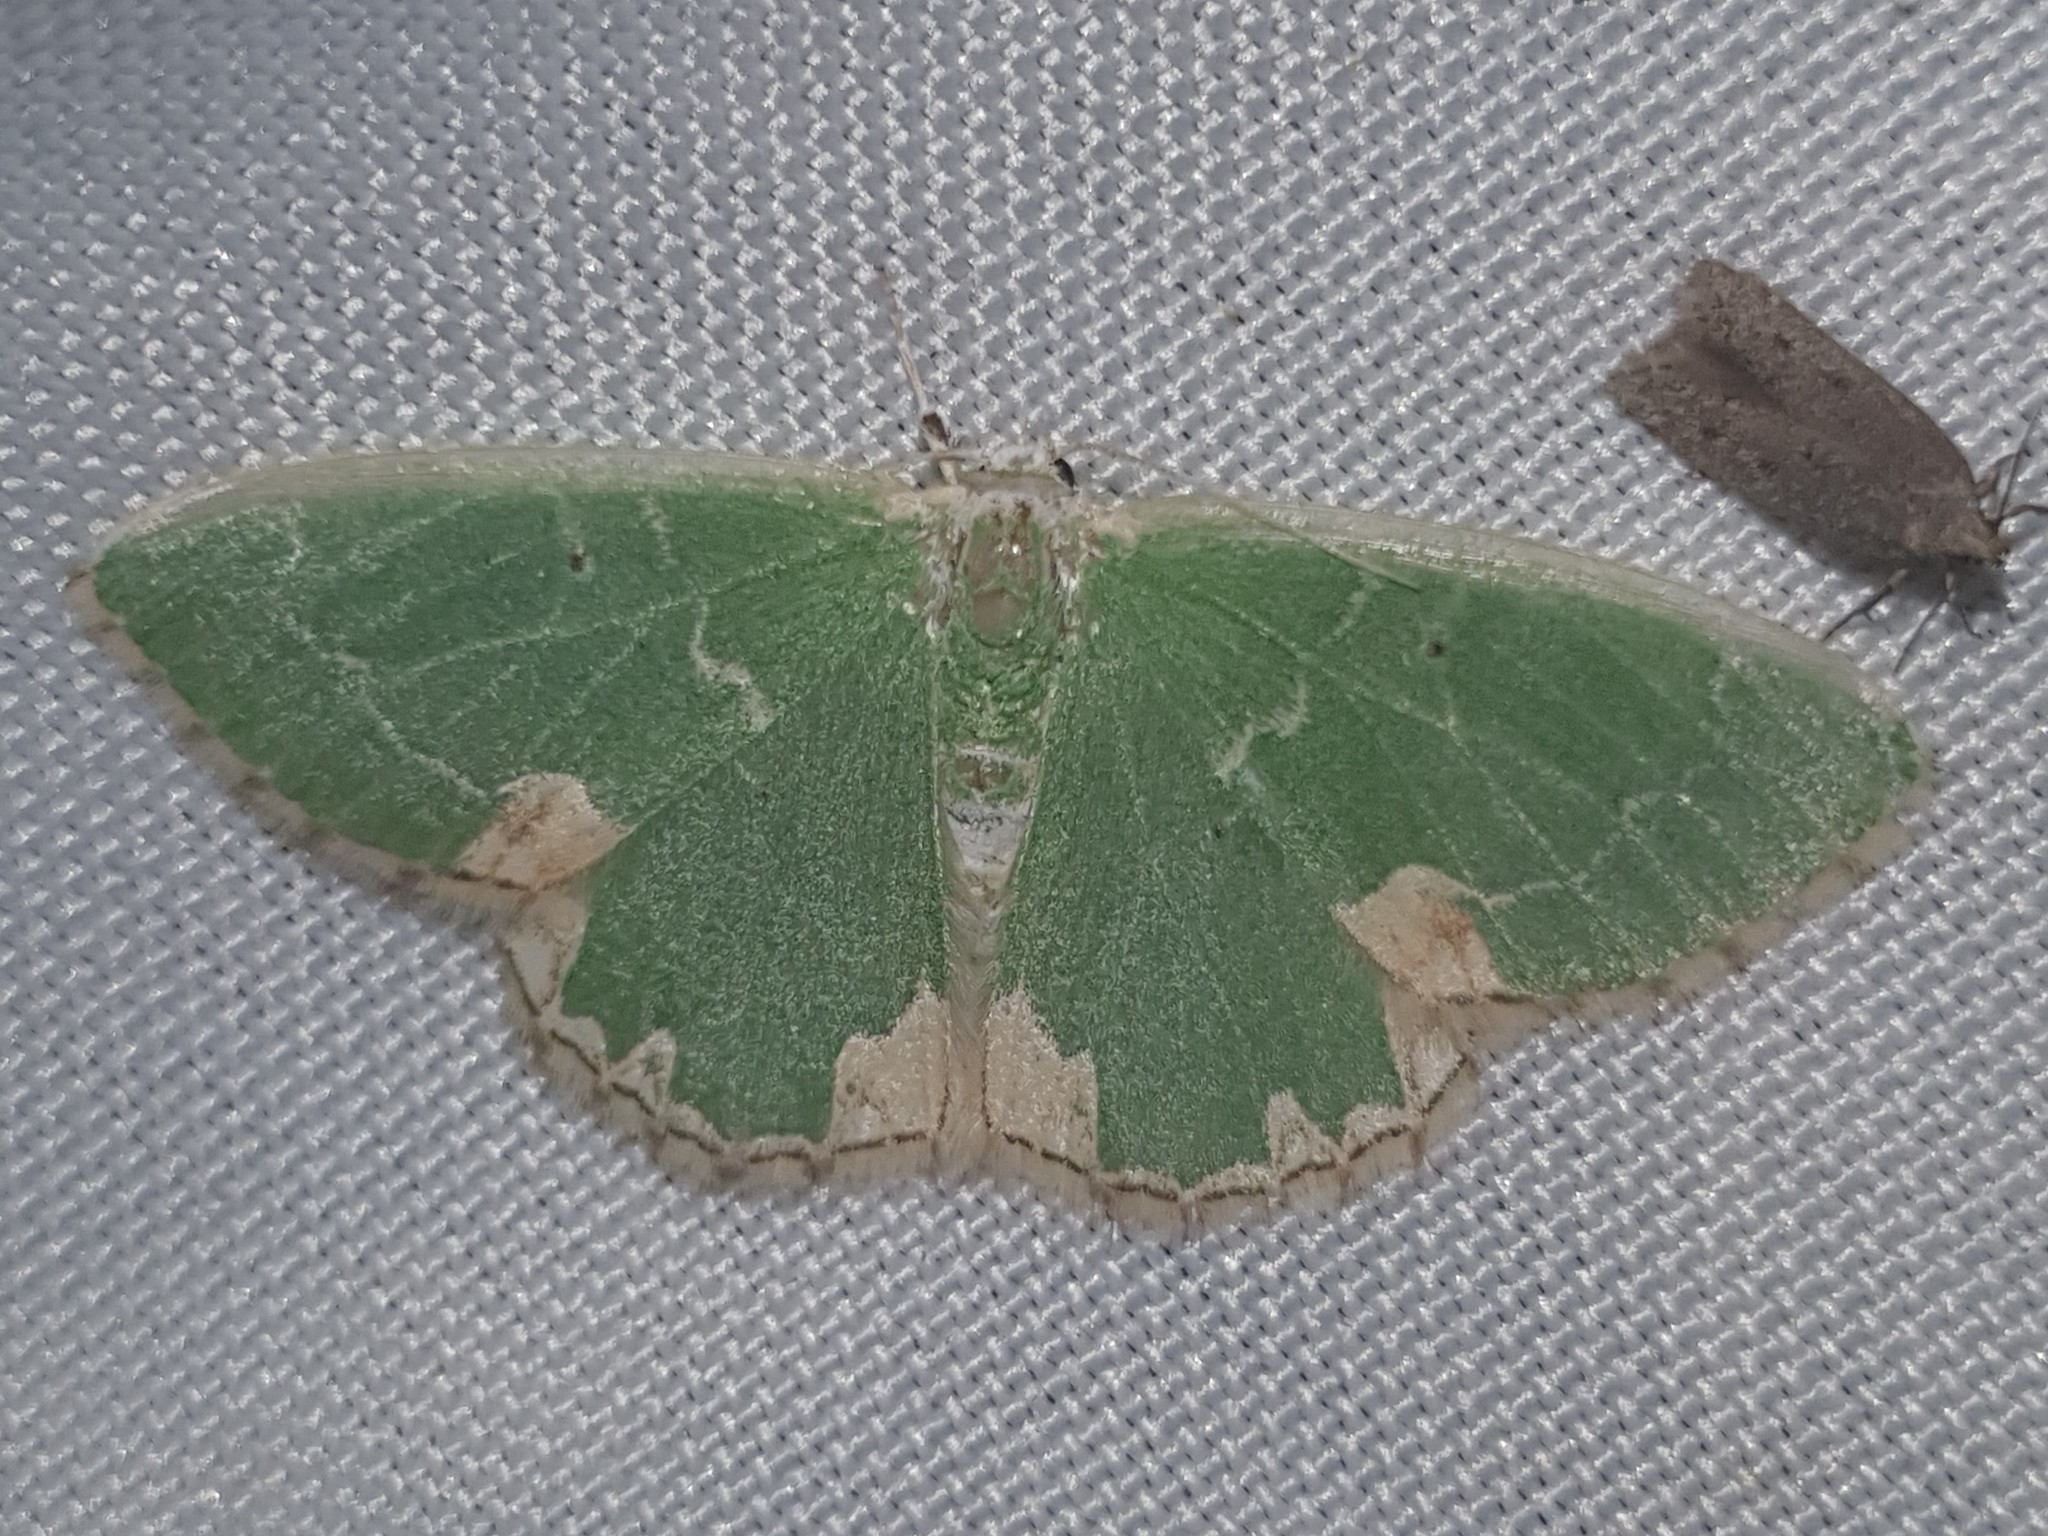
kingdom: Animalia
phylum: Arthropoda
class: Insecta
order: Lepidoptera
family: Geometridae
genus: Comibaena
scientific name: Comibaena bajularia
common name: Blotched emerald
